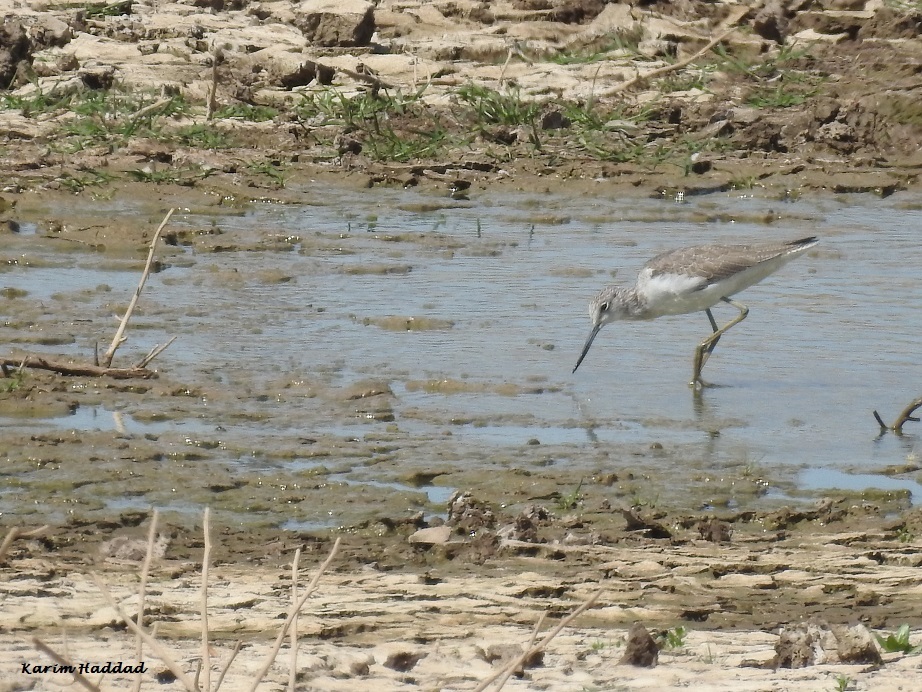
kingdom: Animalia
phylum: Chordata
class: Aves
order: Charadriiformes
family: Scolopacidae
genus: Tringa
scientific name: Tringa nebularia
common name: Common greenshank
